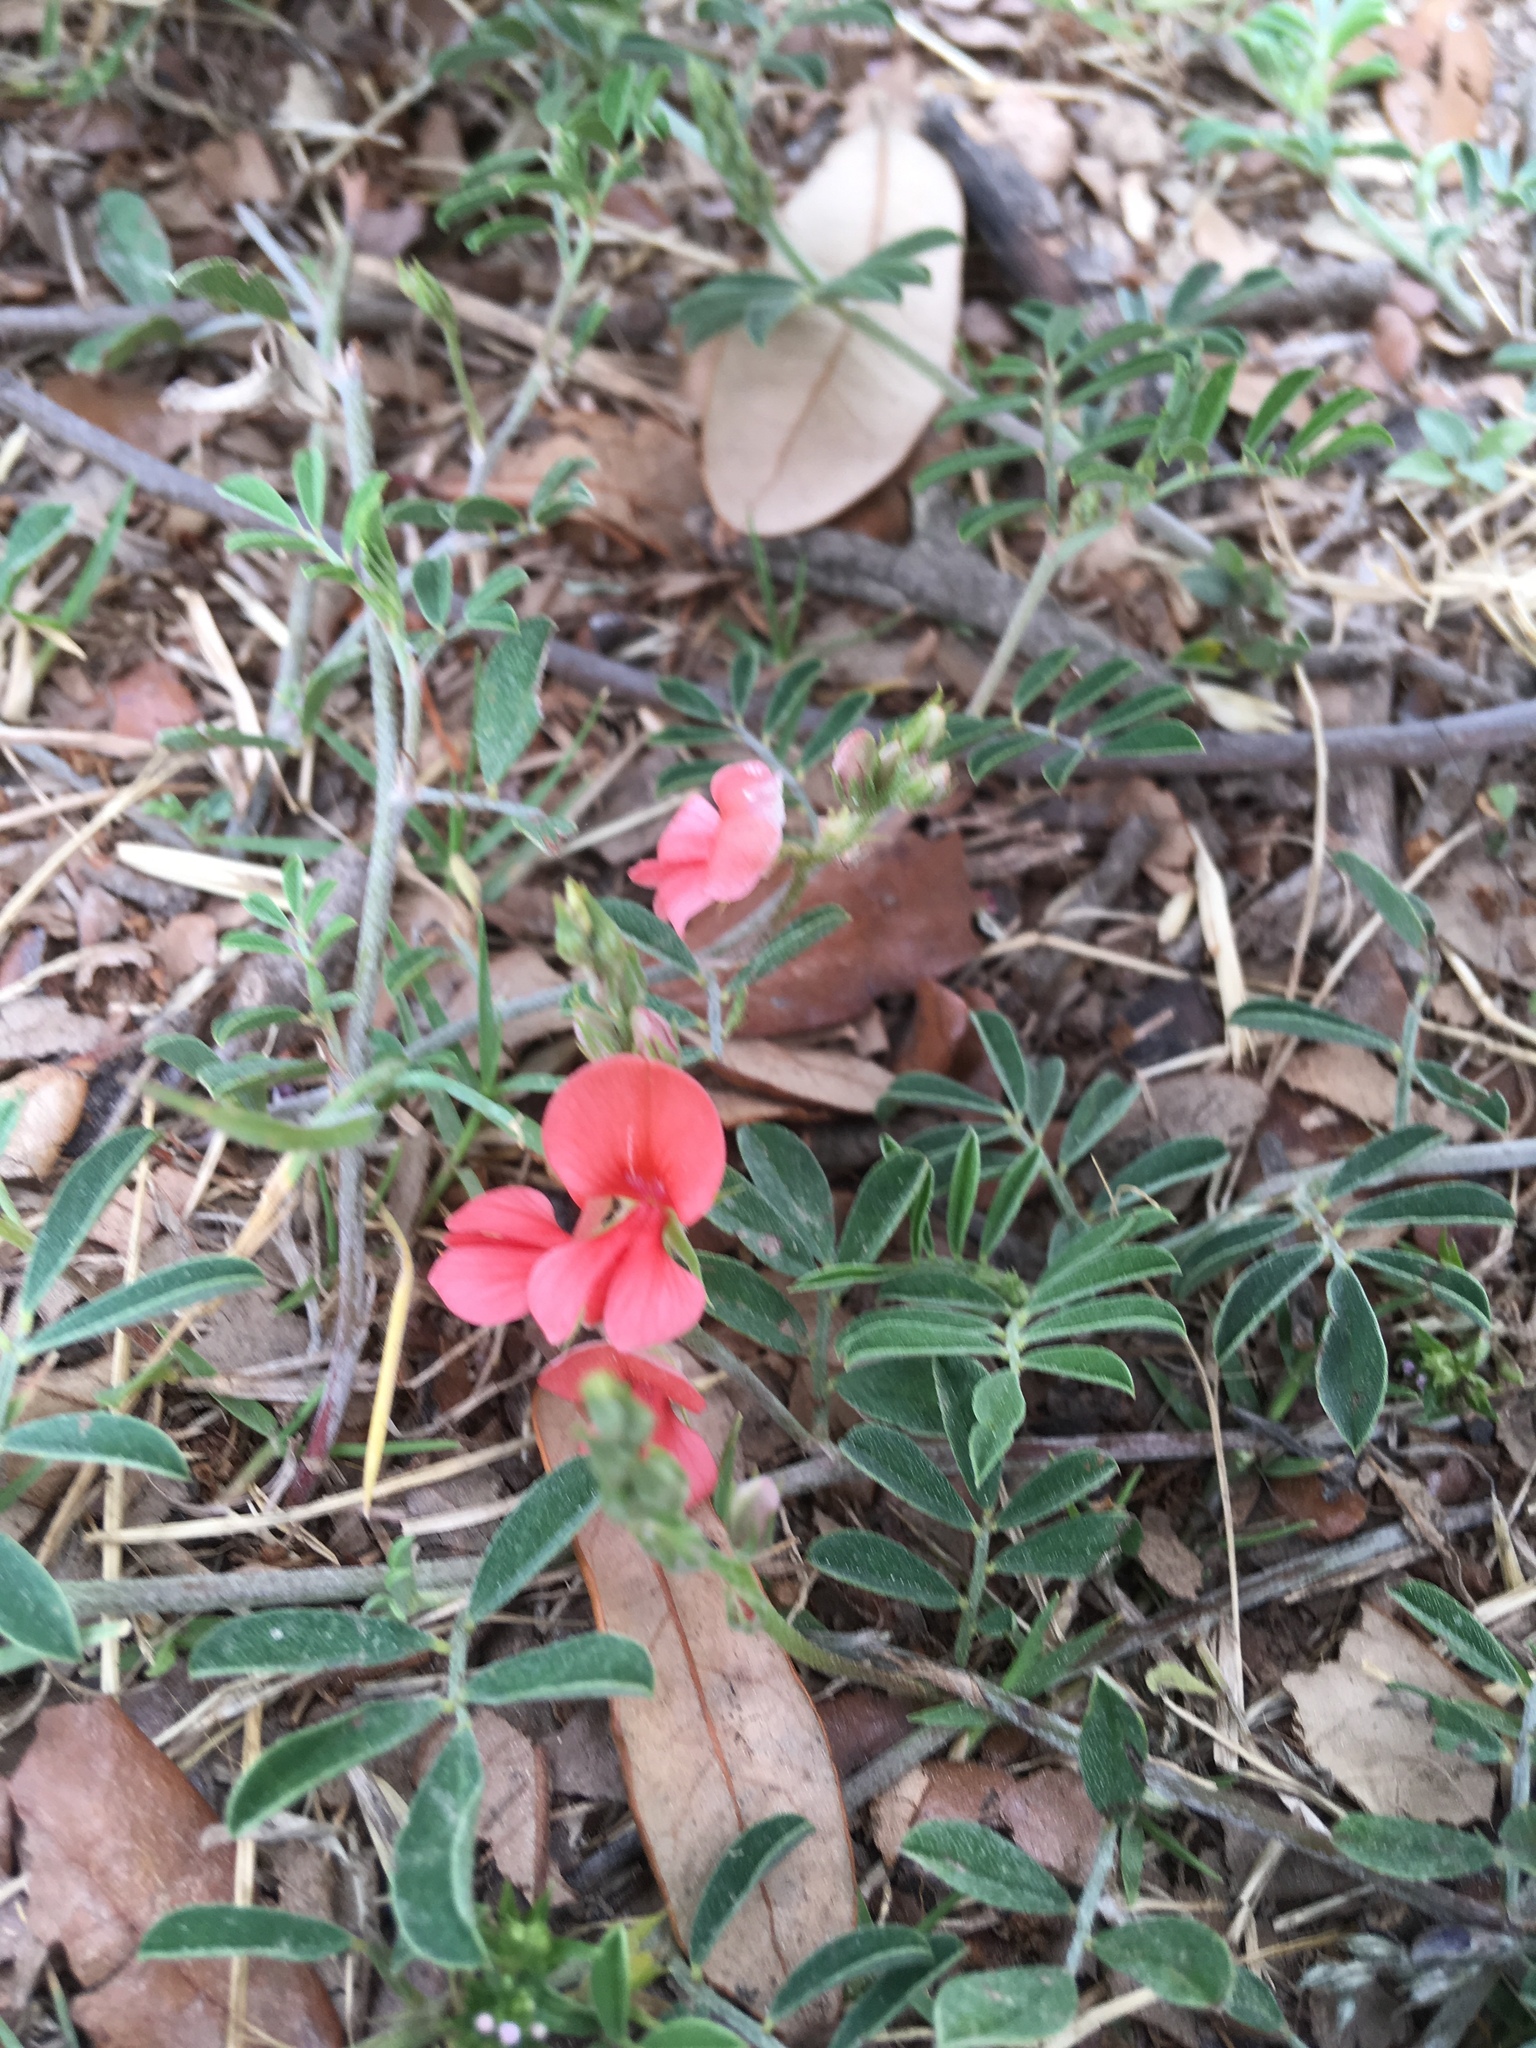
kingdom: Plantae
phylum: Tracheophyta
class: Magnoliopsida
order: Fabales
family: Fabaceae
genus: Indigofera
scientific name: Indigofera miniata
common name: Coast indigo
